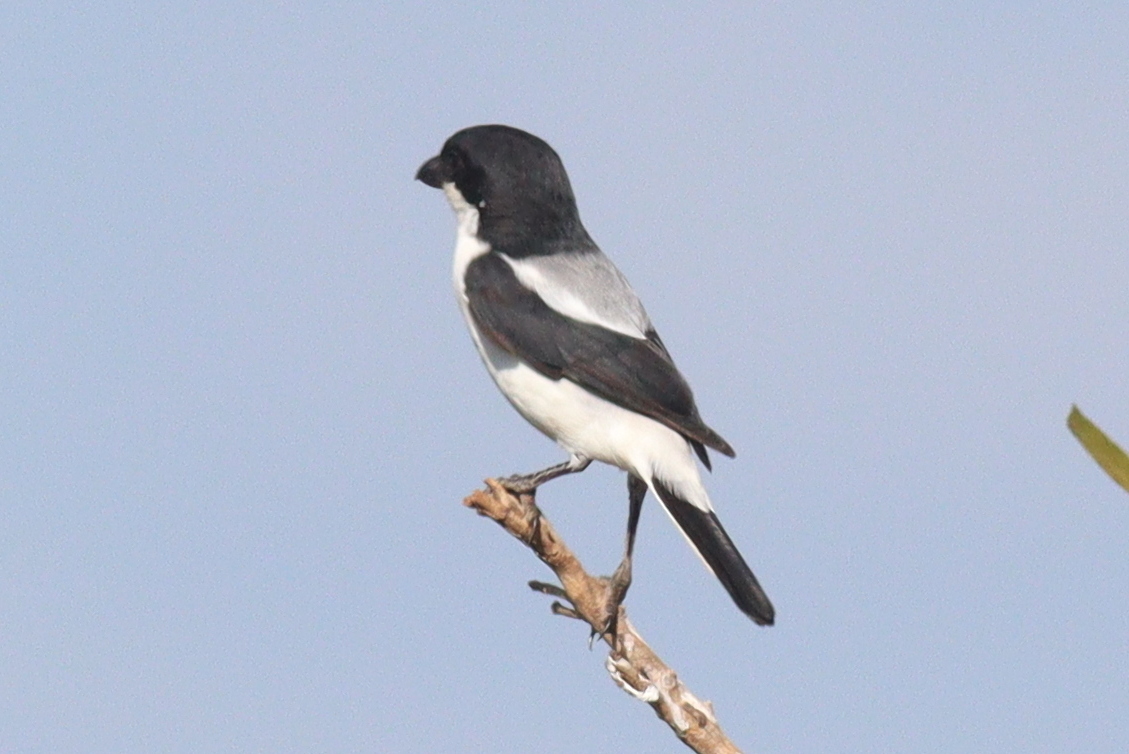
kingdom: Animalia
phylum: Chordata
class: Aves
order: Passeriformes
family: Laniidae
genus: Lanius
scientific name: Lanius dorsalis
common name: Taita fiscal
